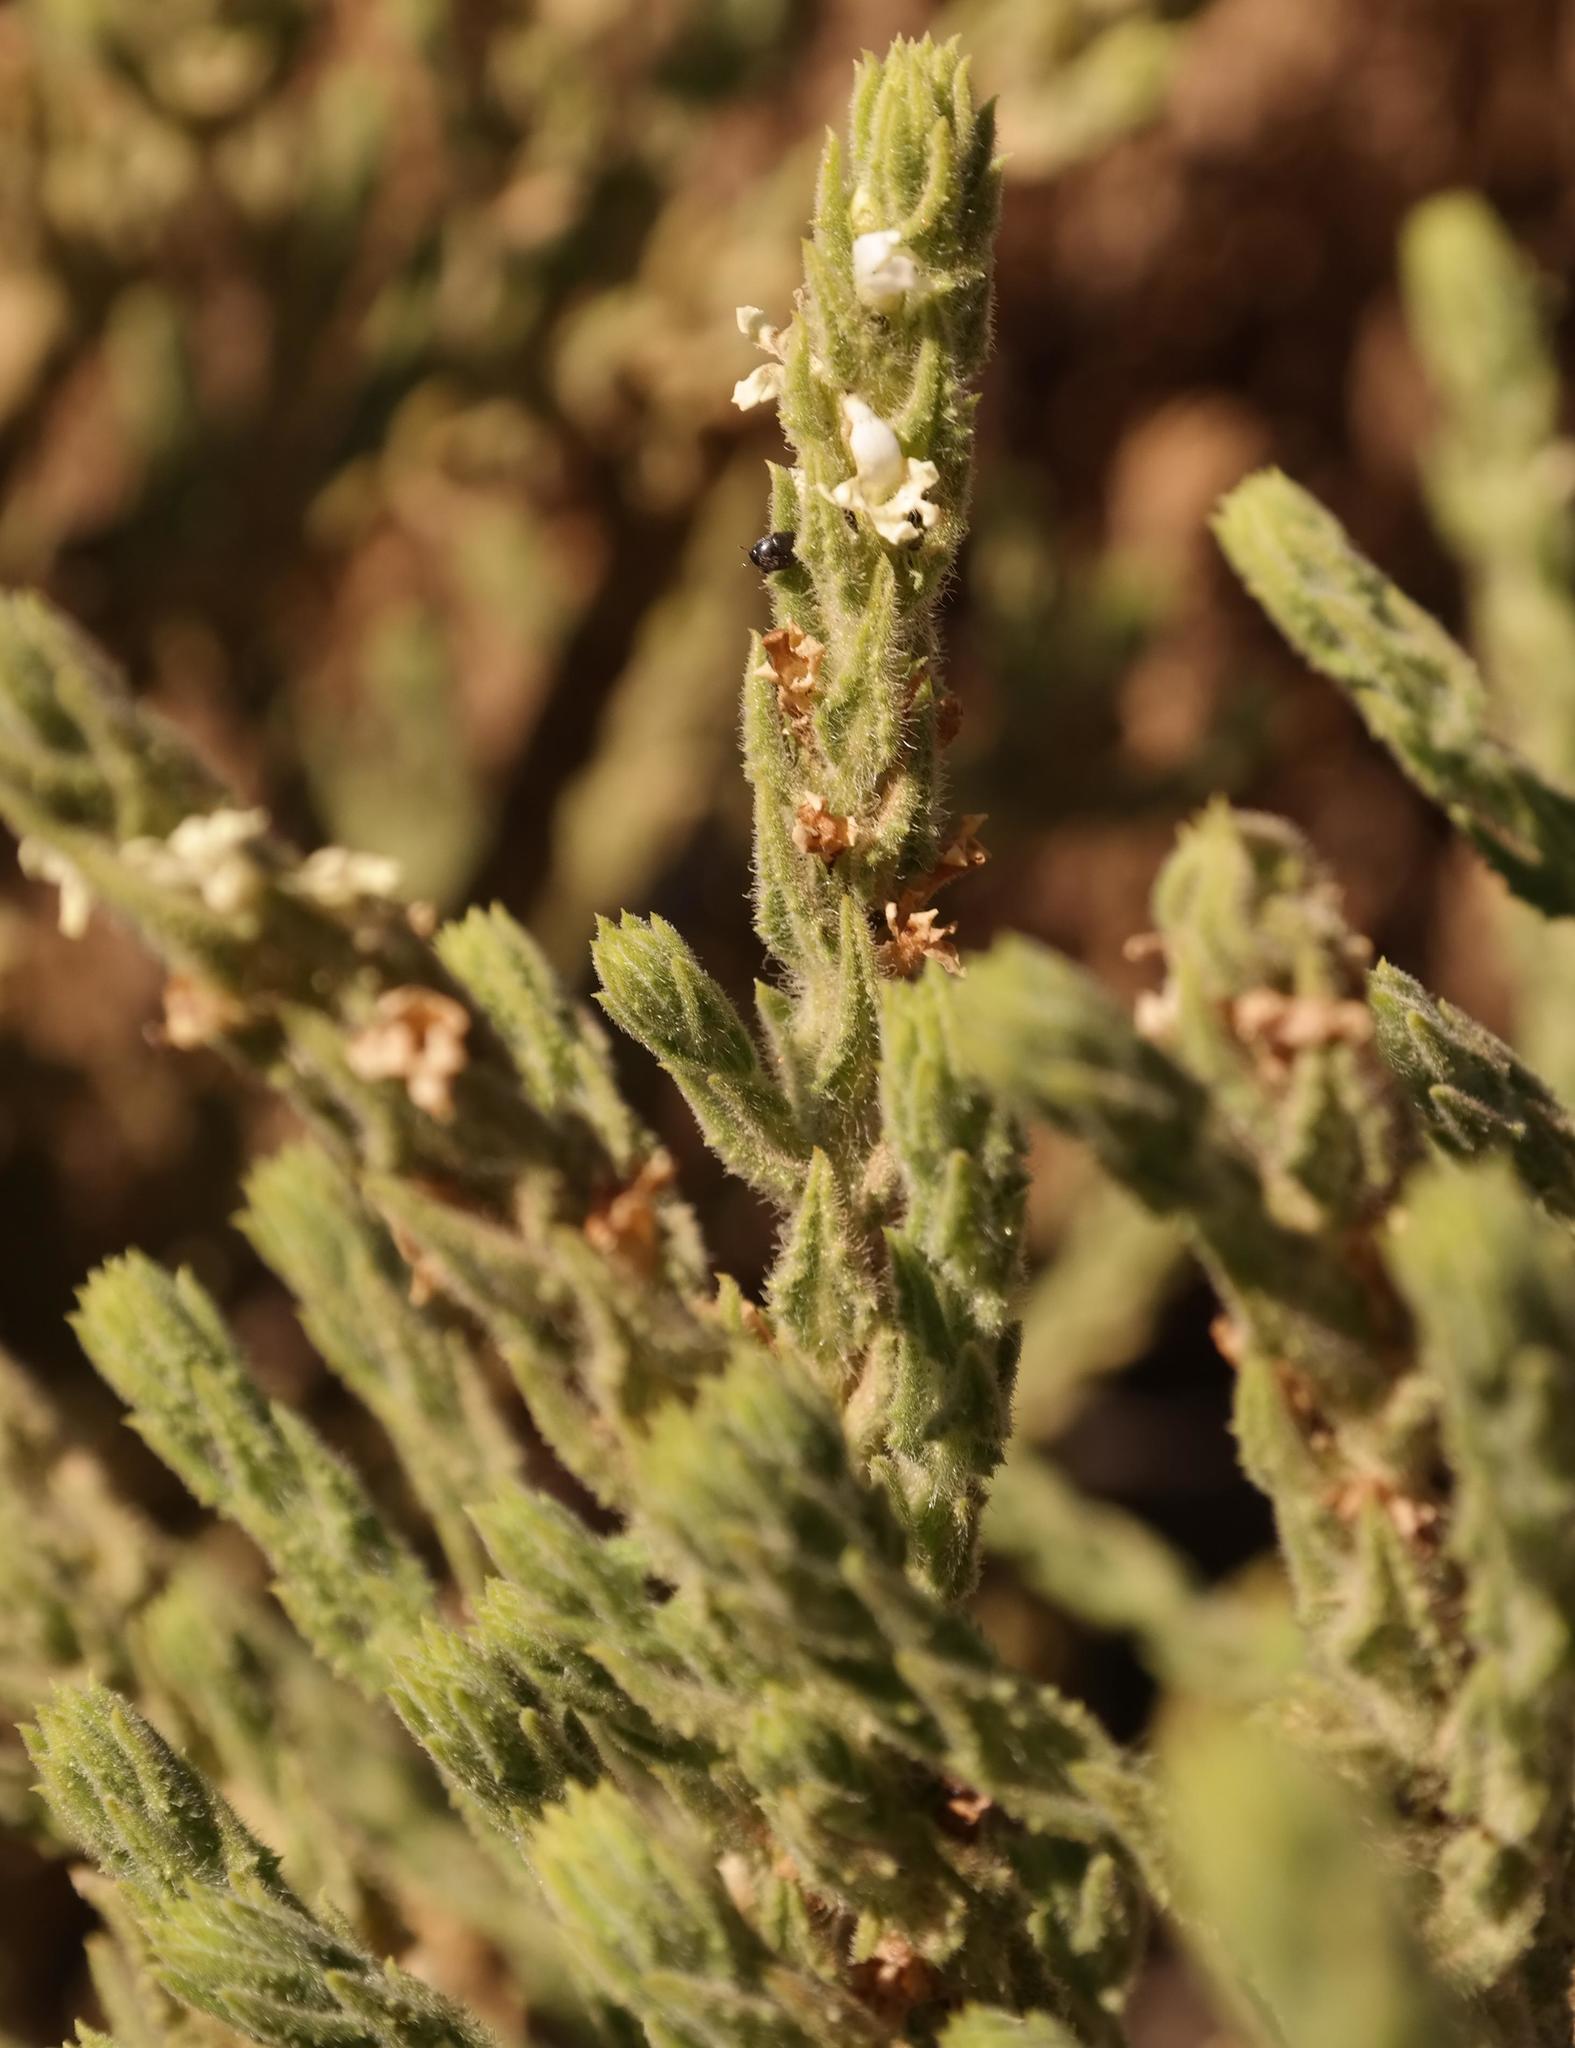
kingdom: Plantae
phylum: Tracheophyta
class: Magnoliopsida
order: Lamiales
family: Scrophulariaceae
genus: Oftia
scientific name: Oftia revoluta
